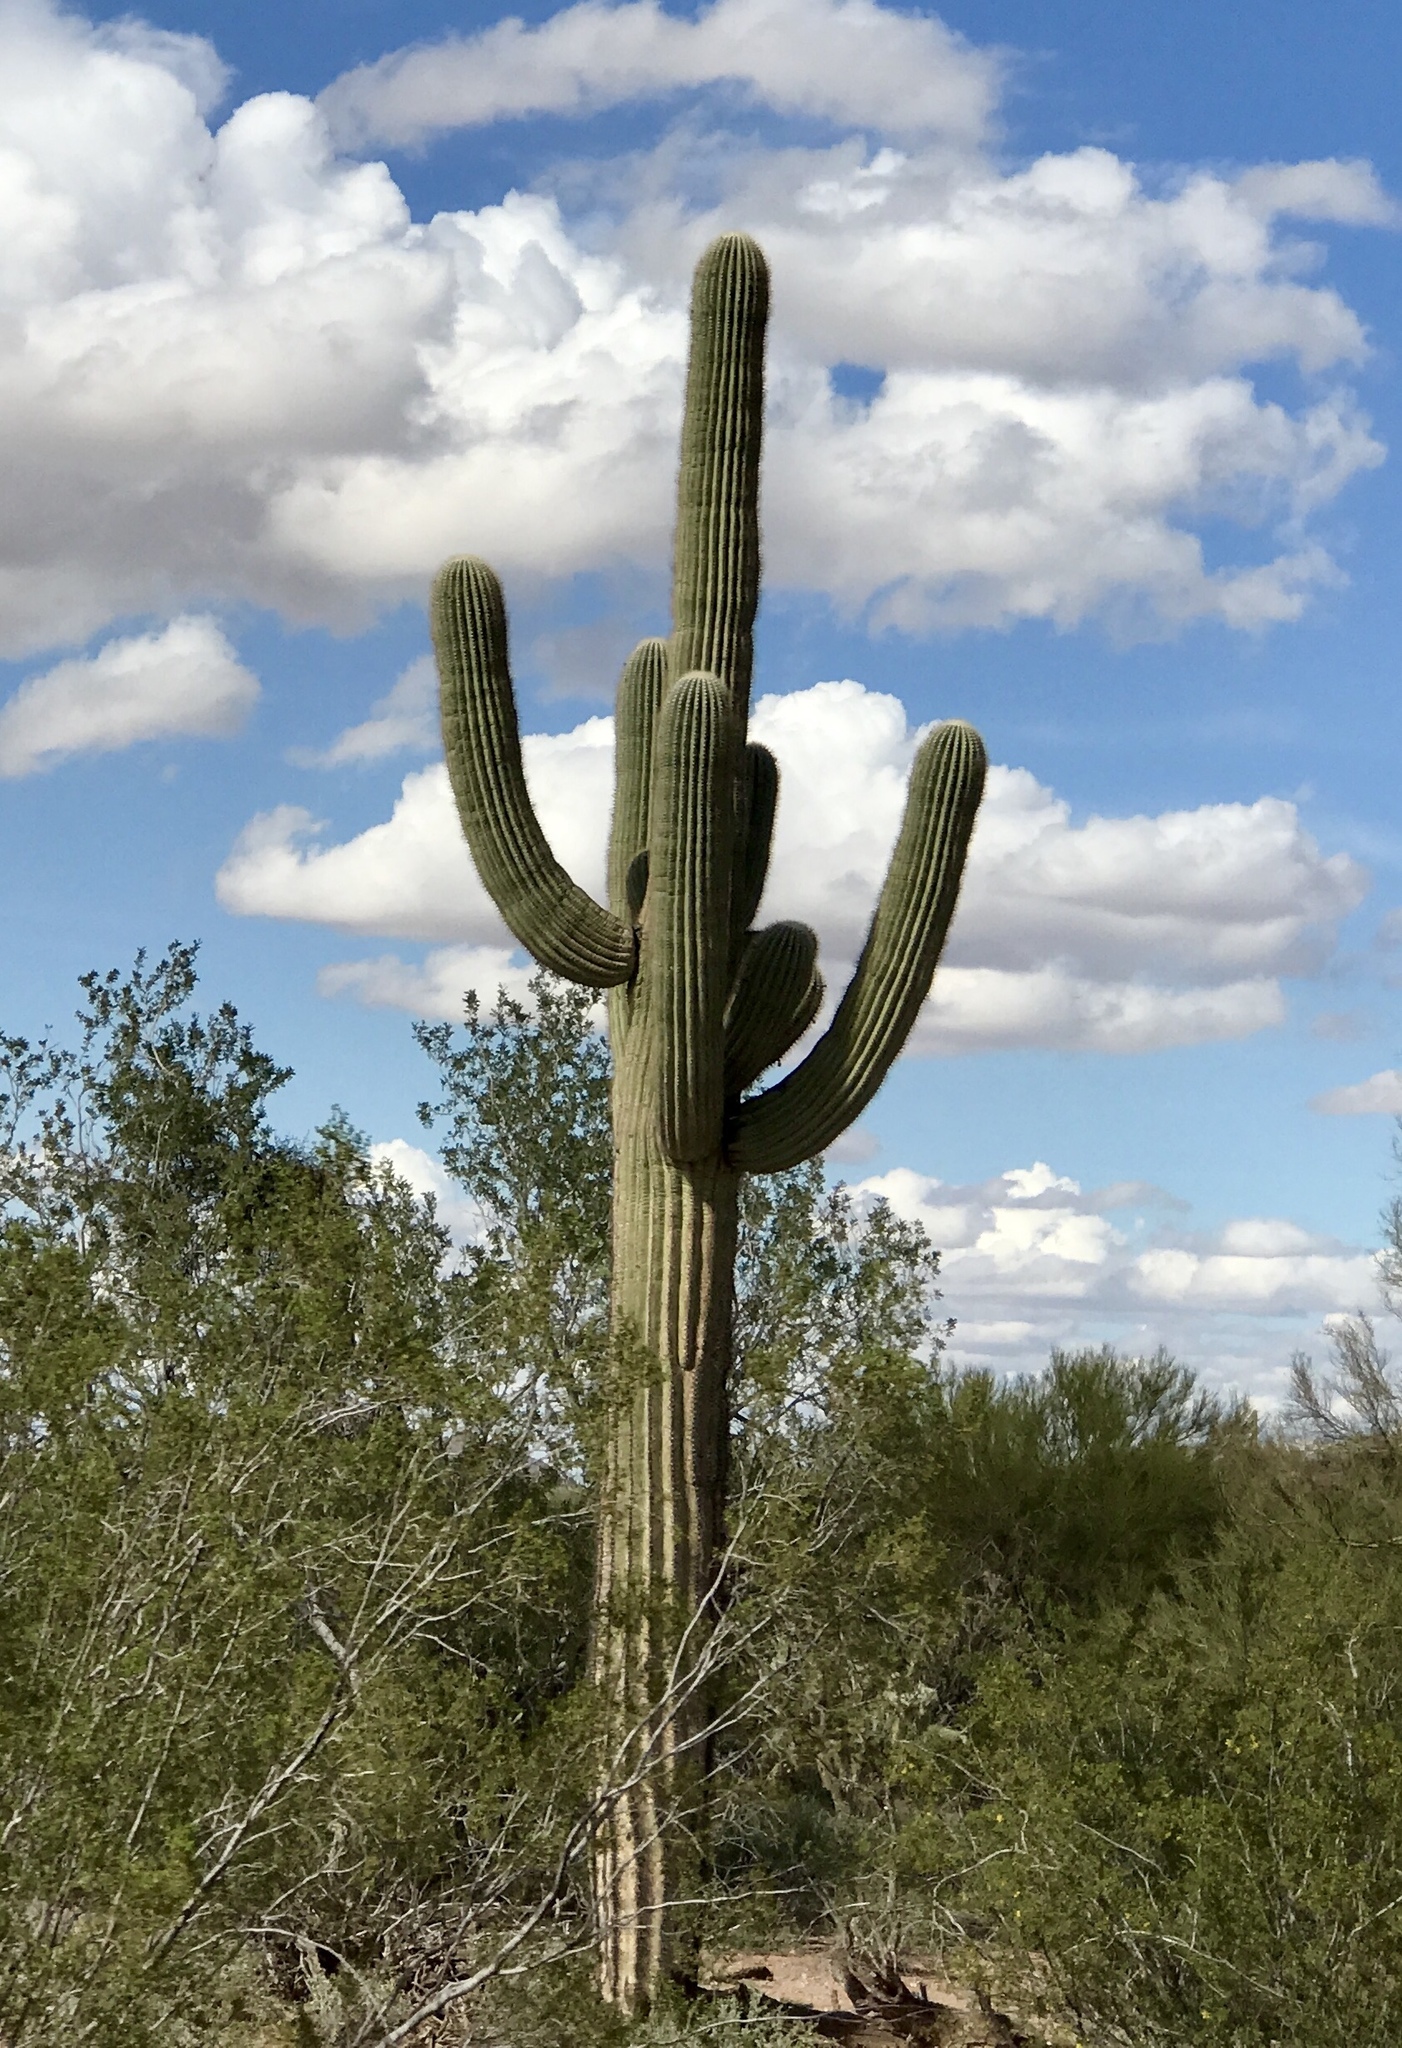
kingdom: Plantae
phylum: Tracheophyta
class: Magnoliopsida
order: Caryophyllales
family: Cactaceae
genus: Carnegiea
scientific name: Carnegiea gigantea
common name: Saguaro
